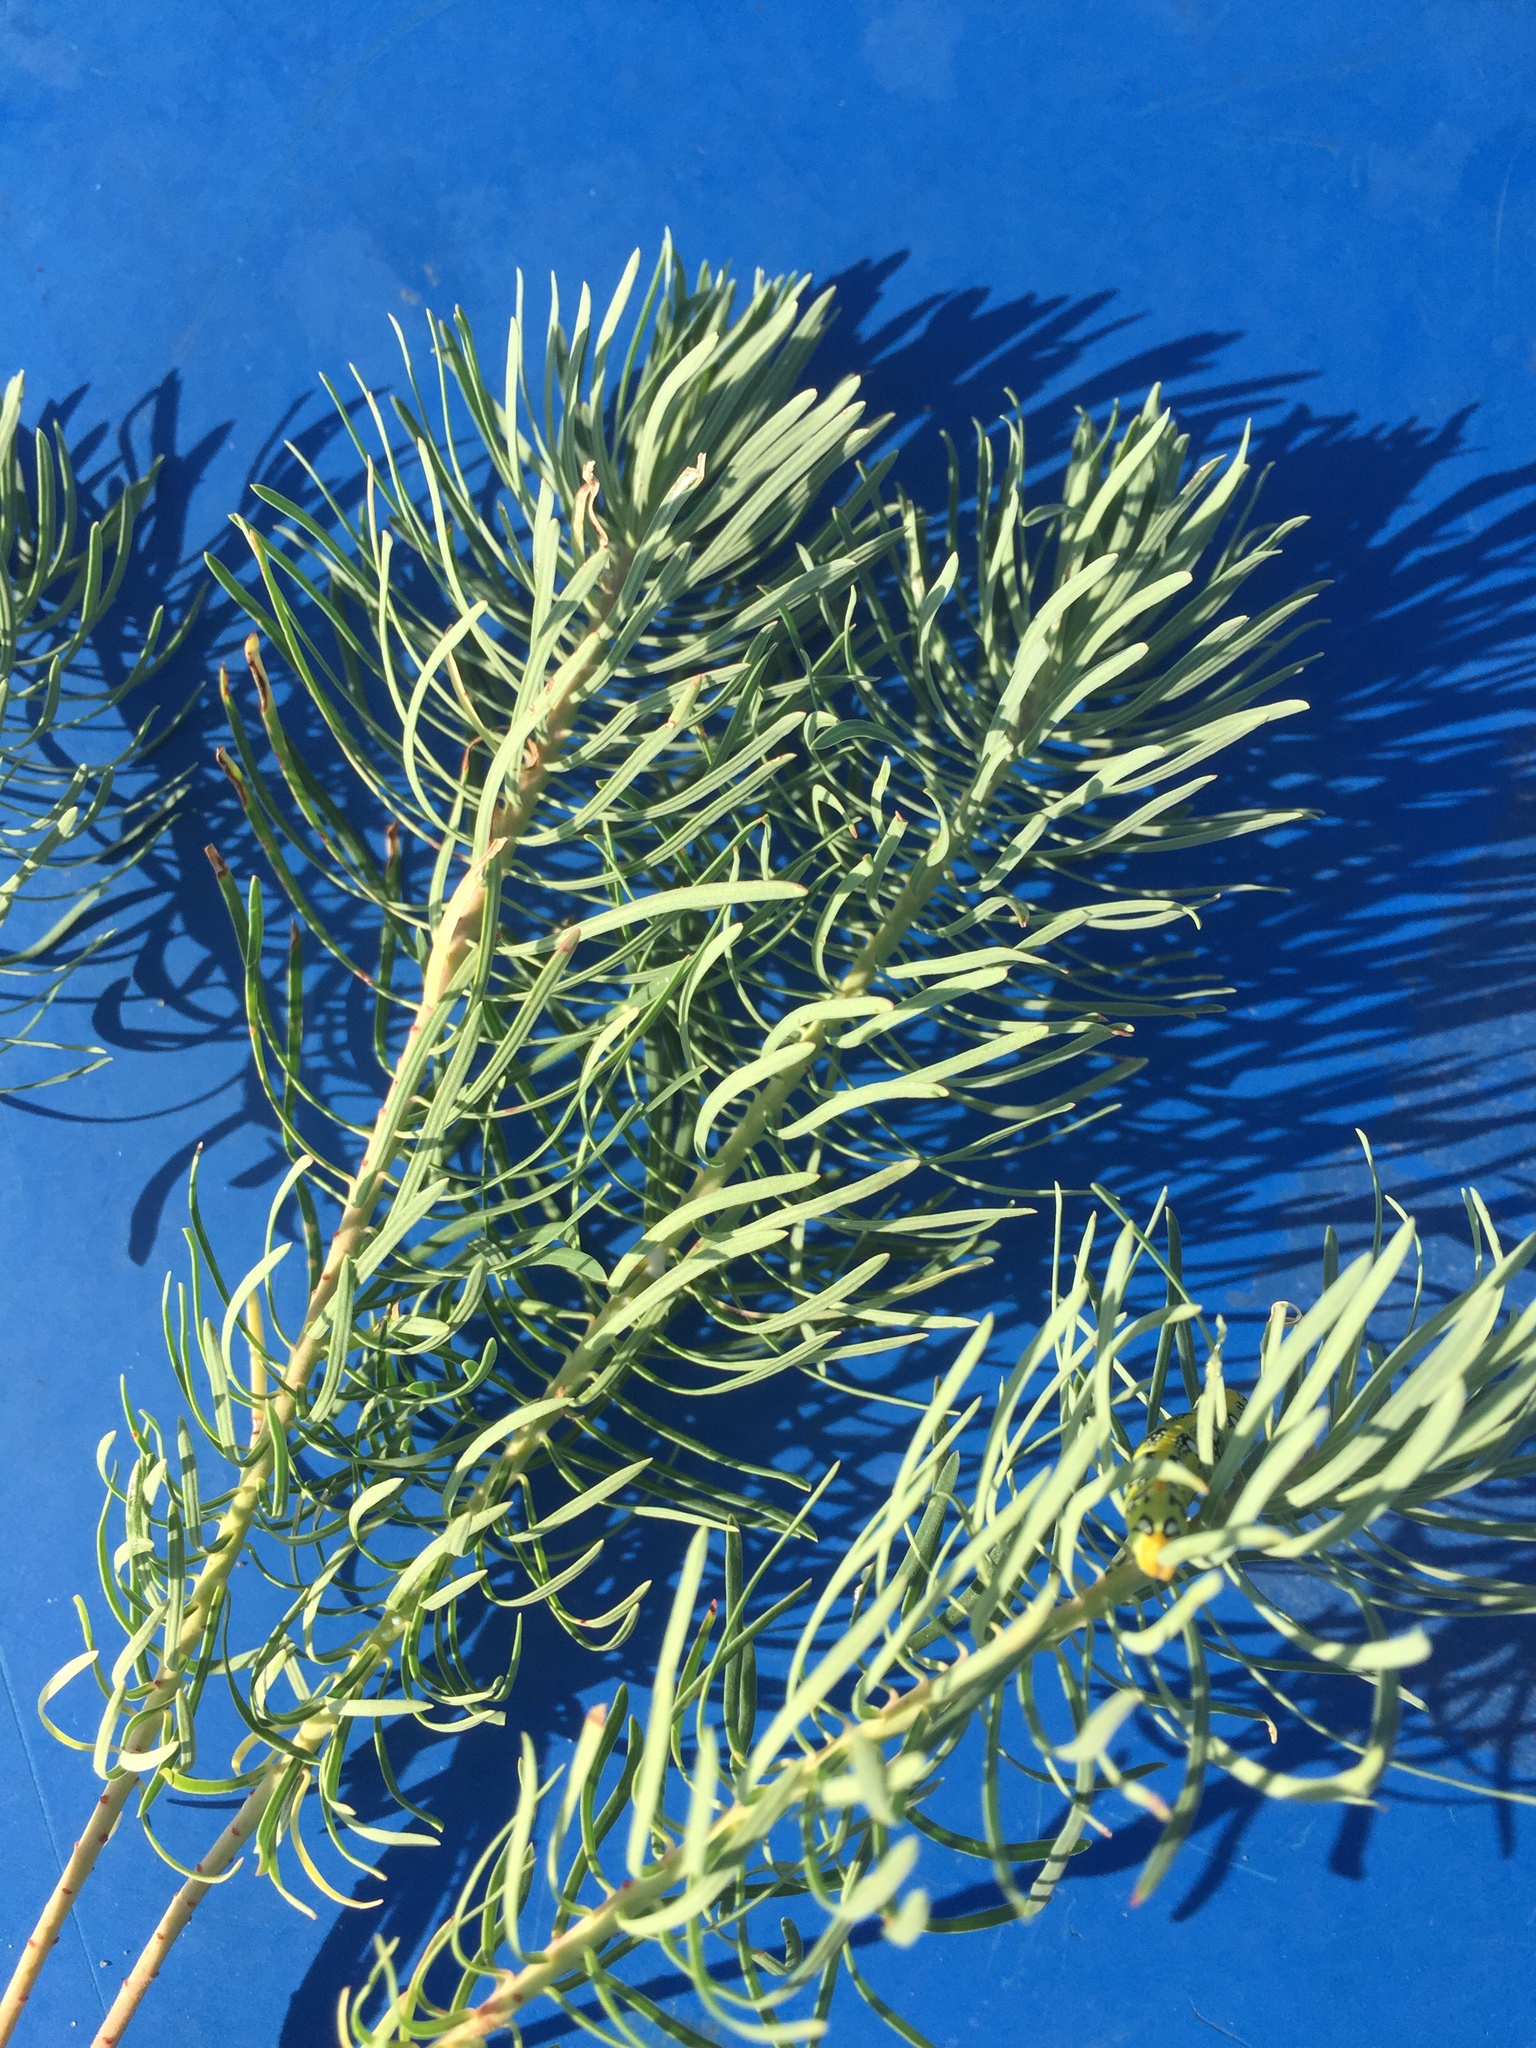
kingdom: Plantae
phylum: Tracheophyta
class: Magnoliopsida
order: Malpighiales
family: Euphorbiaceae
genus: Euphorbia
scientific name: Euphorbia cyparissias
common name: Cypress spurge
